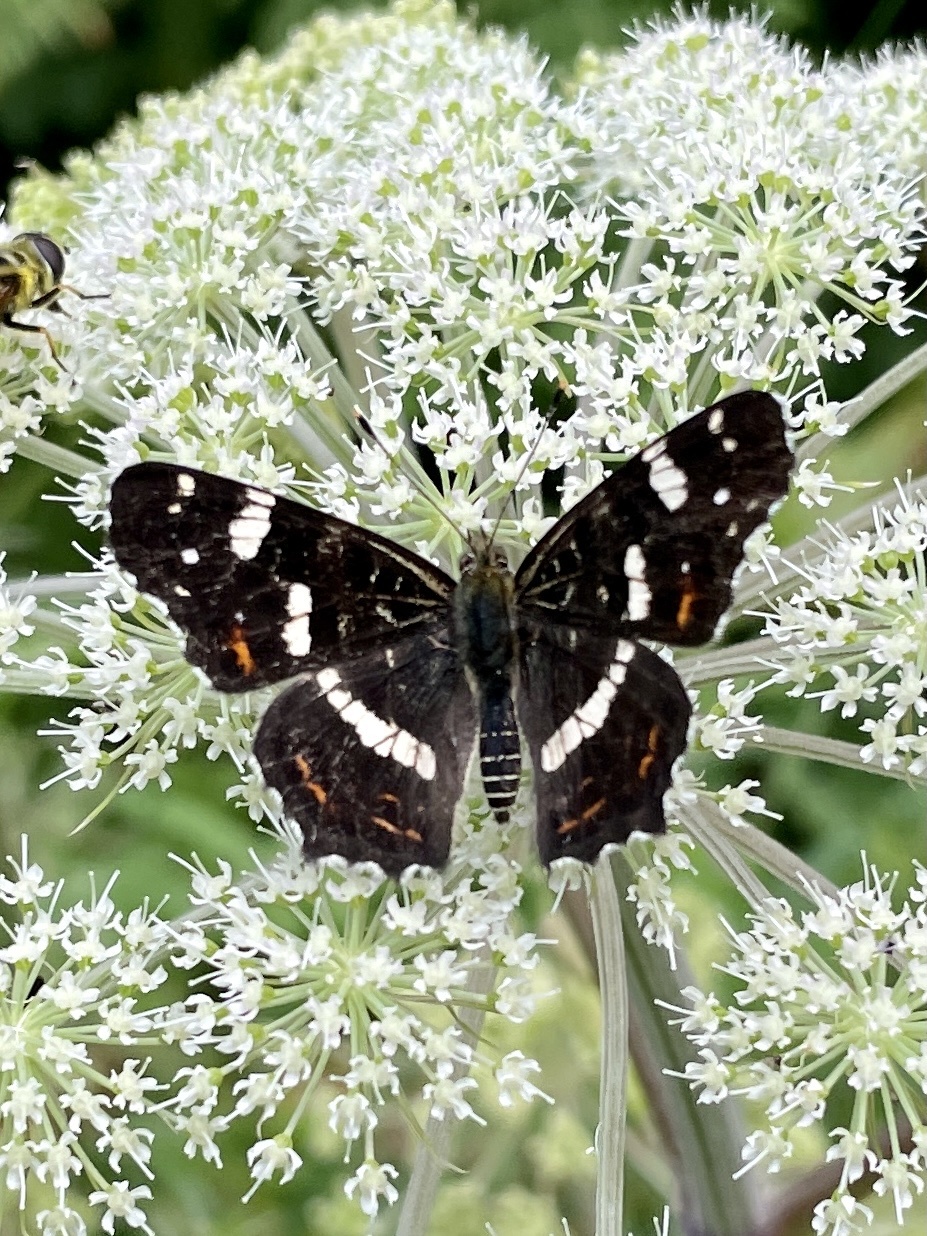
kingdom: Animalia
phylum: Arthropoda
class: Insecta
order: Lepidoptera
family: Nymphalidae
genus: Araschnia
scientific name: Araschnia levana
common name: Map butterfly
